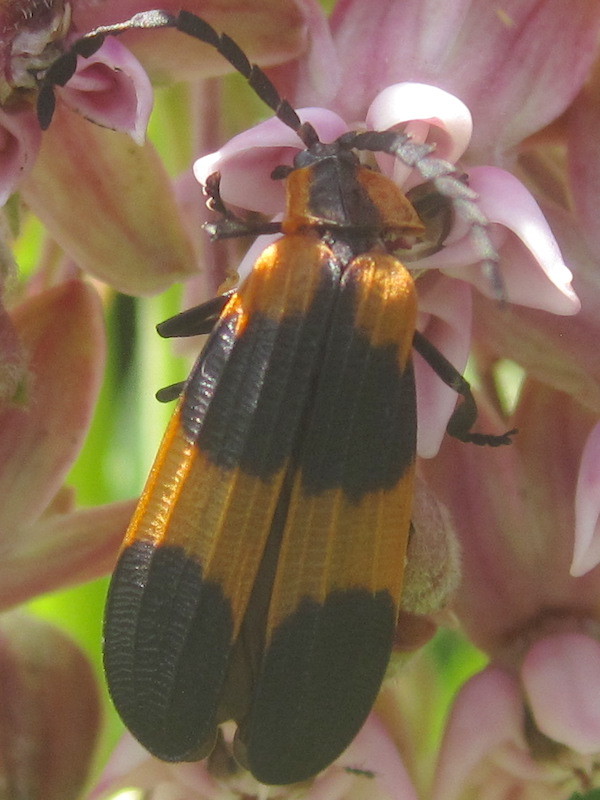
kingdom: Animalia
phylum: Arthropoda
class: Insecta
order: Coleoptera
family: Lycidae
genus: Calopteron
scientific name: Calopteron reticulatum
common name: Banded net-winged beetle
